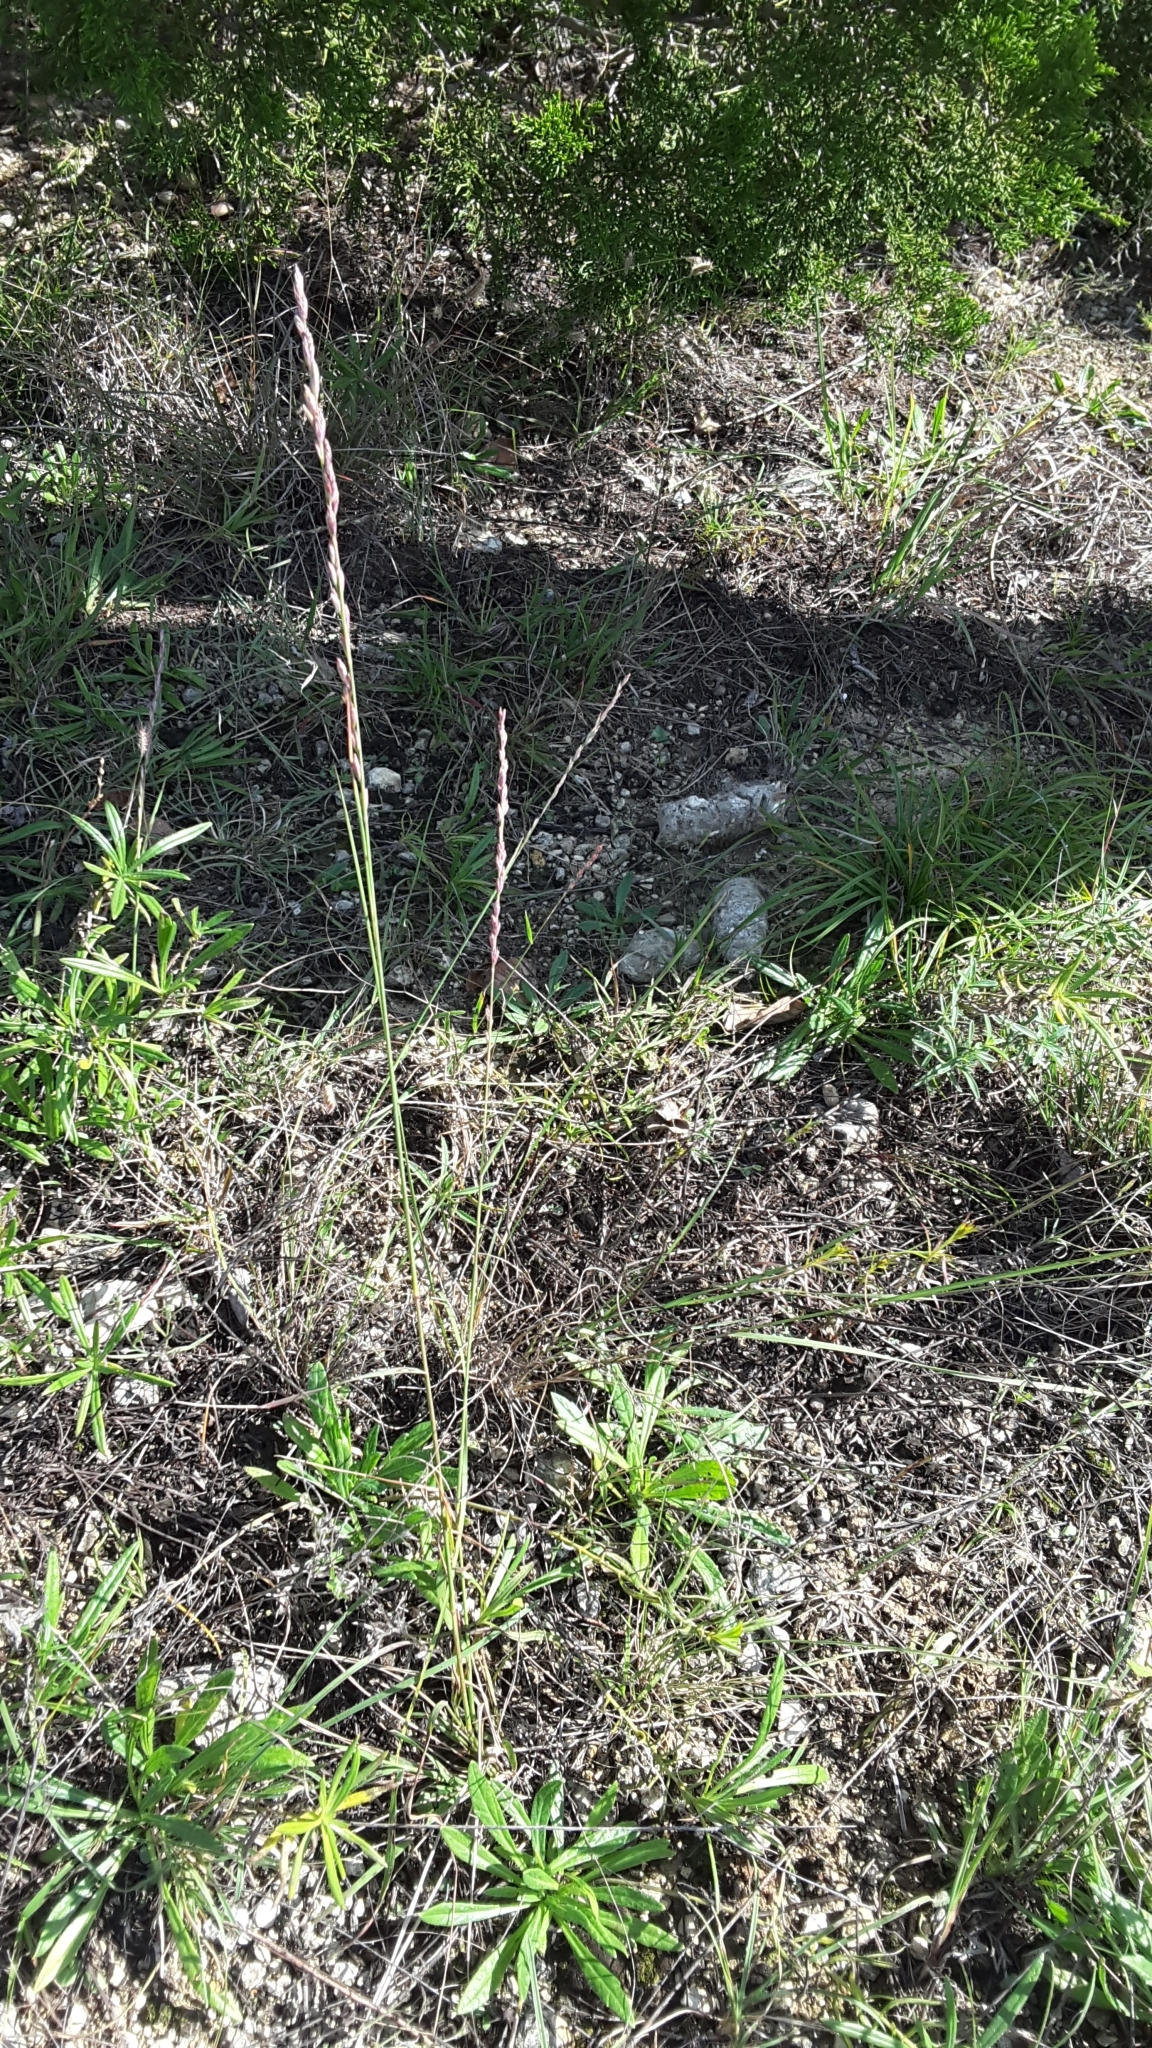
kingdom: Plantae
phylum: Tracheophyta
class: Liliopsida
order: Poales
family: Poaceae
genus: Tridentopsis
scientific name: Tridentopsis mutica
